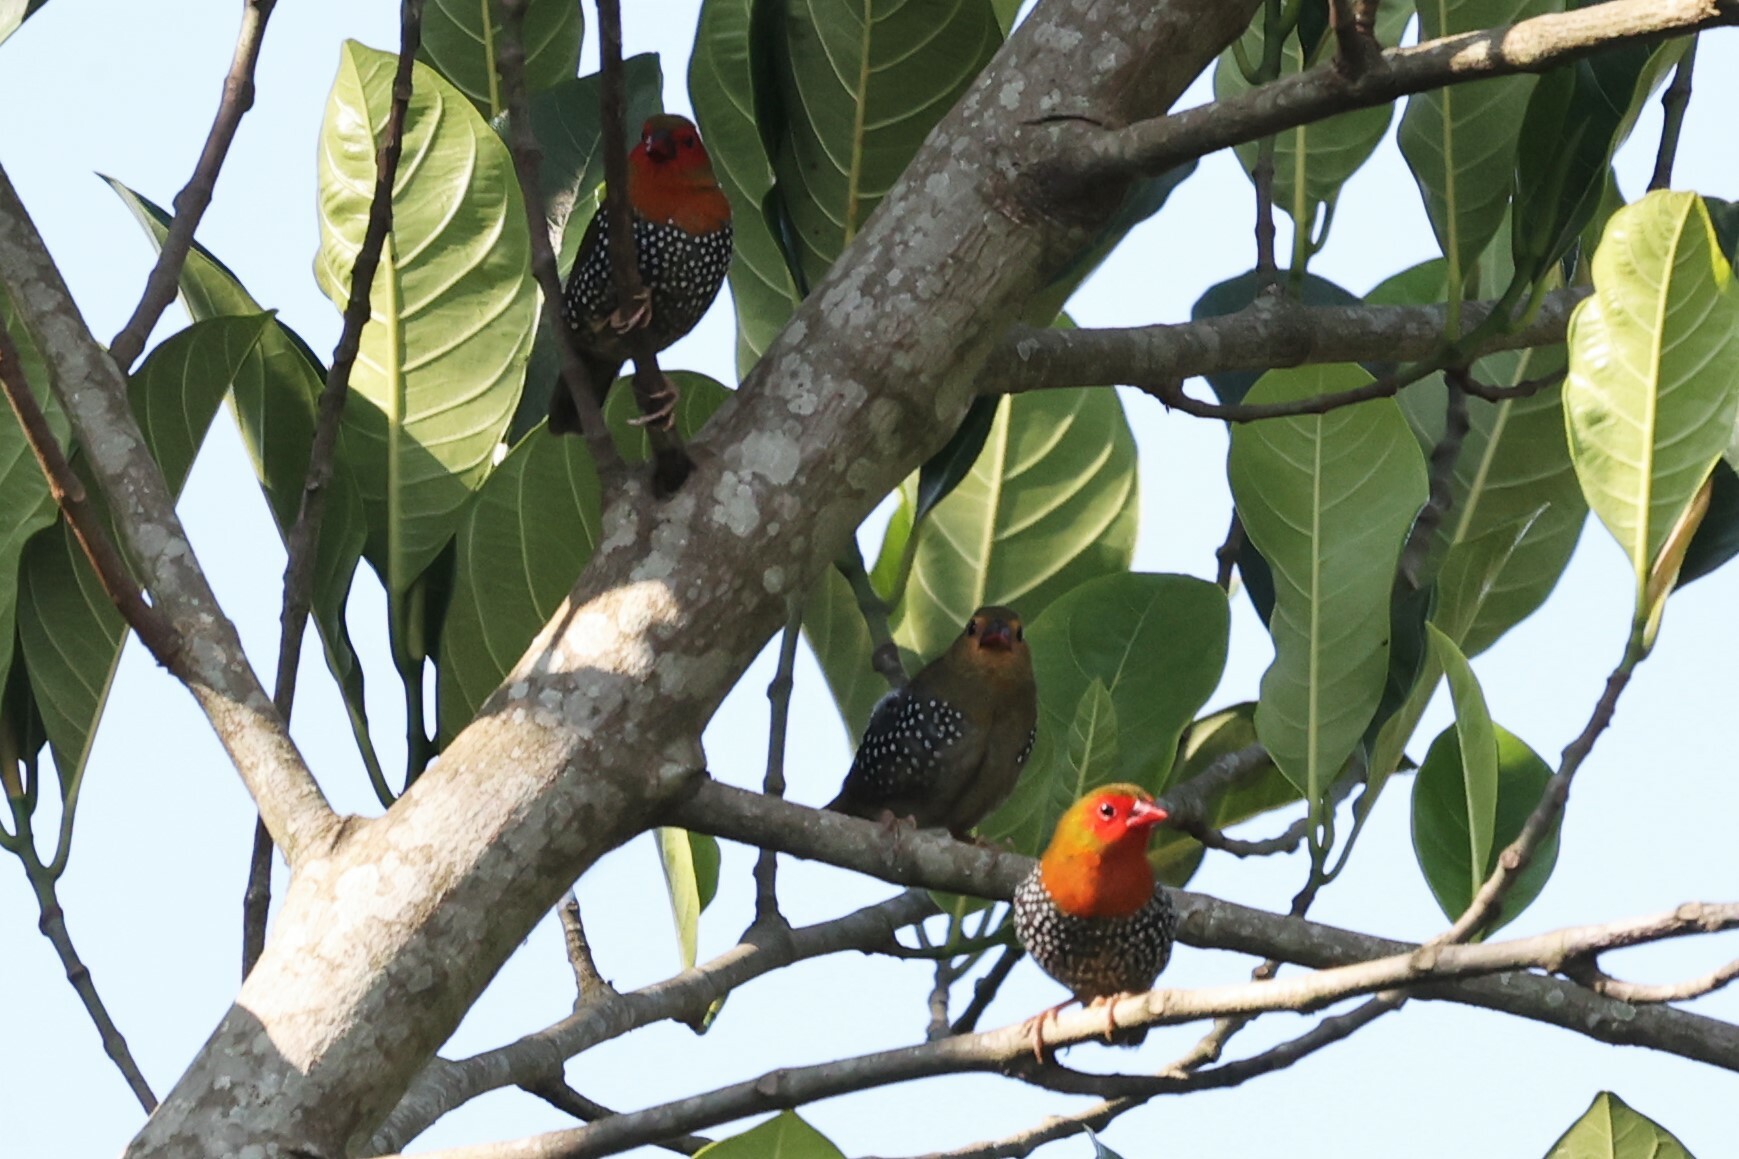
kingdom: Animalia
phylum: Chordata
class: Aves
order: Passeriformes
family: Estrildidae
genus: Mandingoa
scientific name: Mandingoa nitidula
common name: Green twinspot
